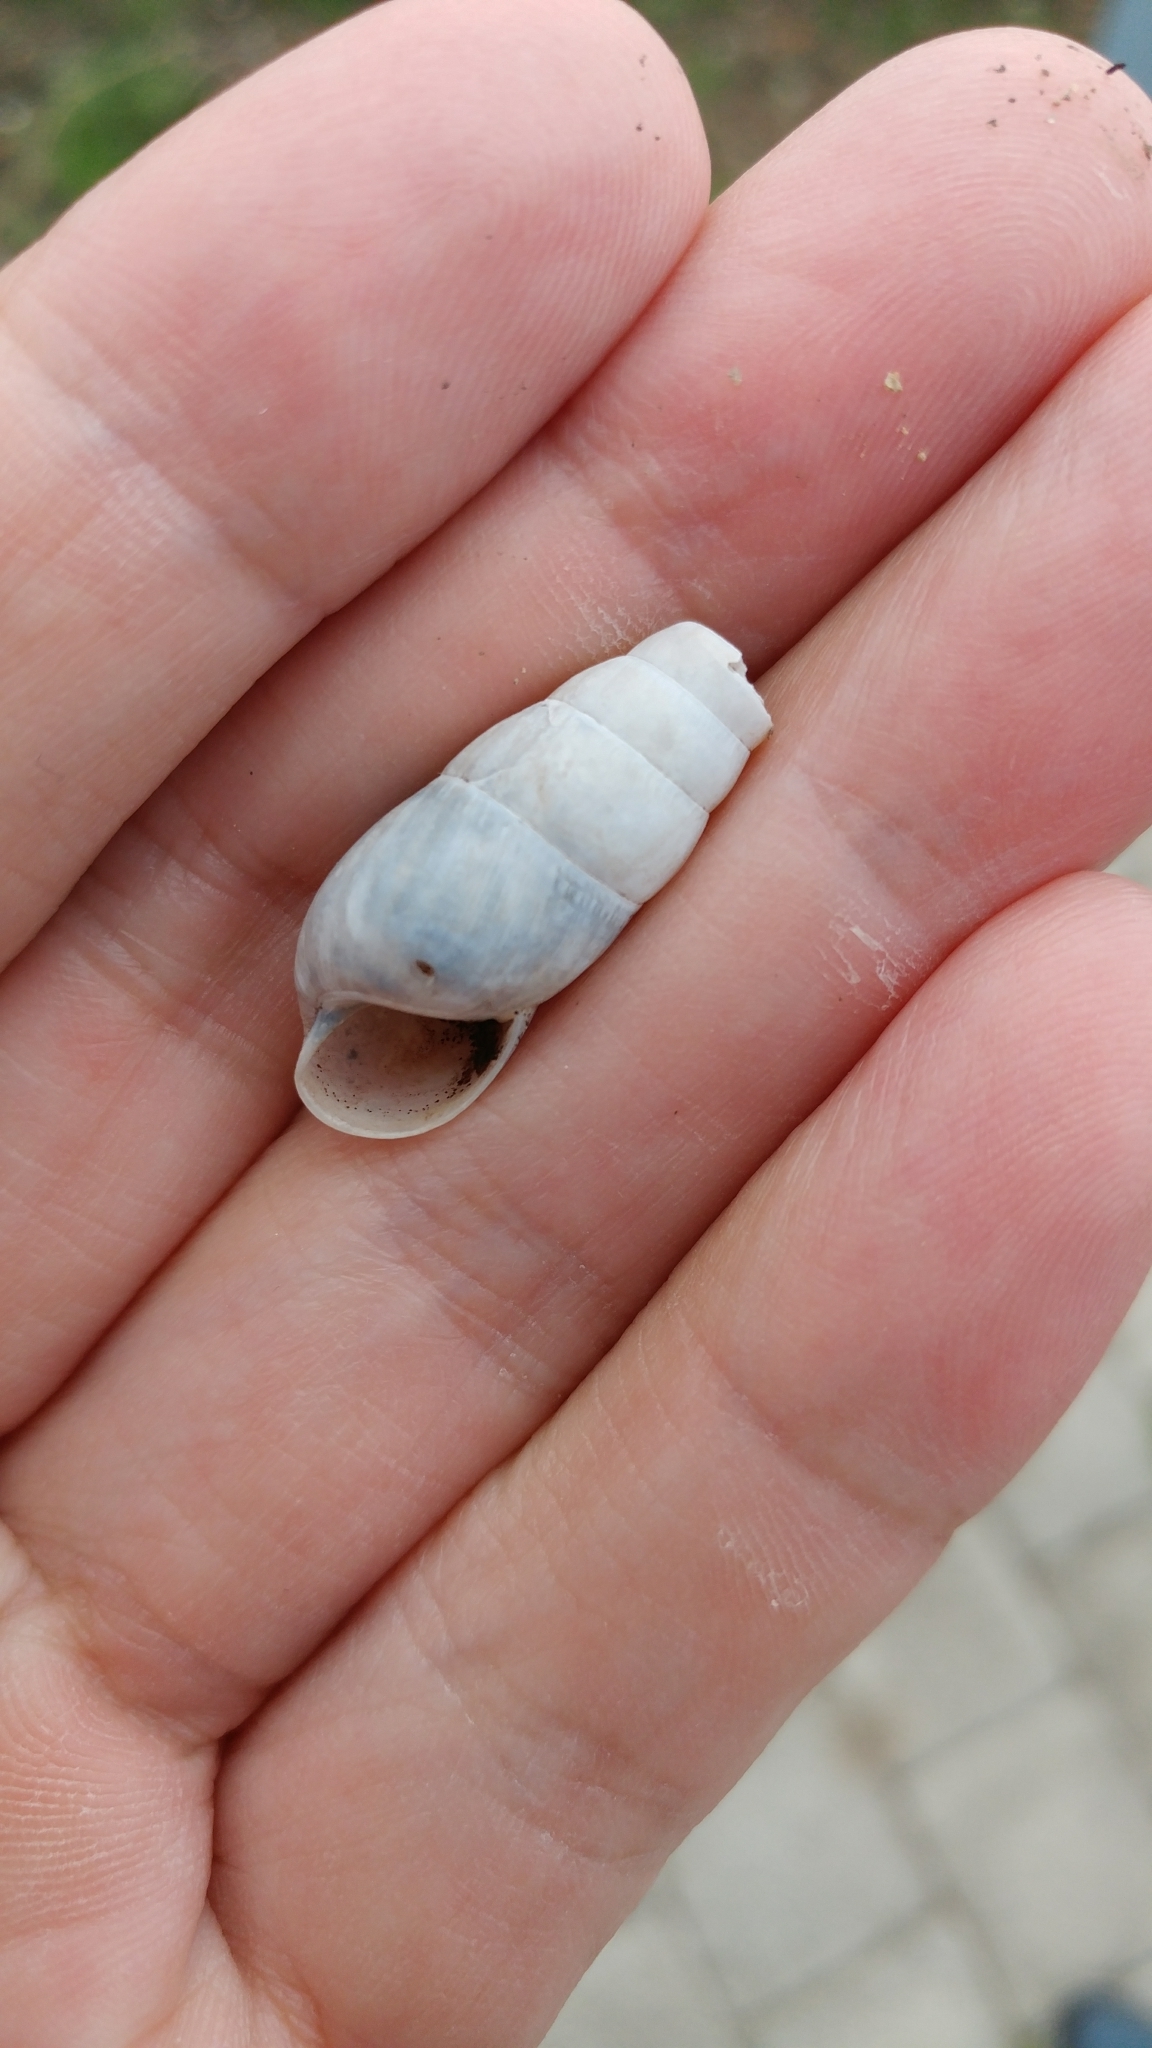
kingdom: Animalia
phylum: Mollusca
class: Gastropoda
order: Stylommatophora
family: Achatinidae
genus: Rumina
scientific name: Rumina decollata
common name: Decollate snail
